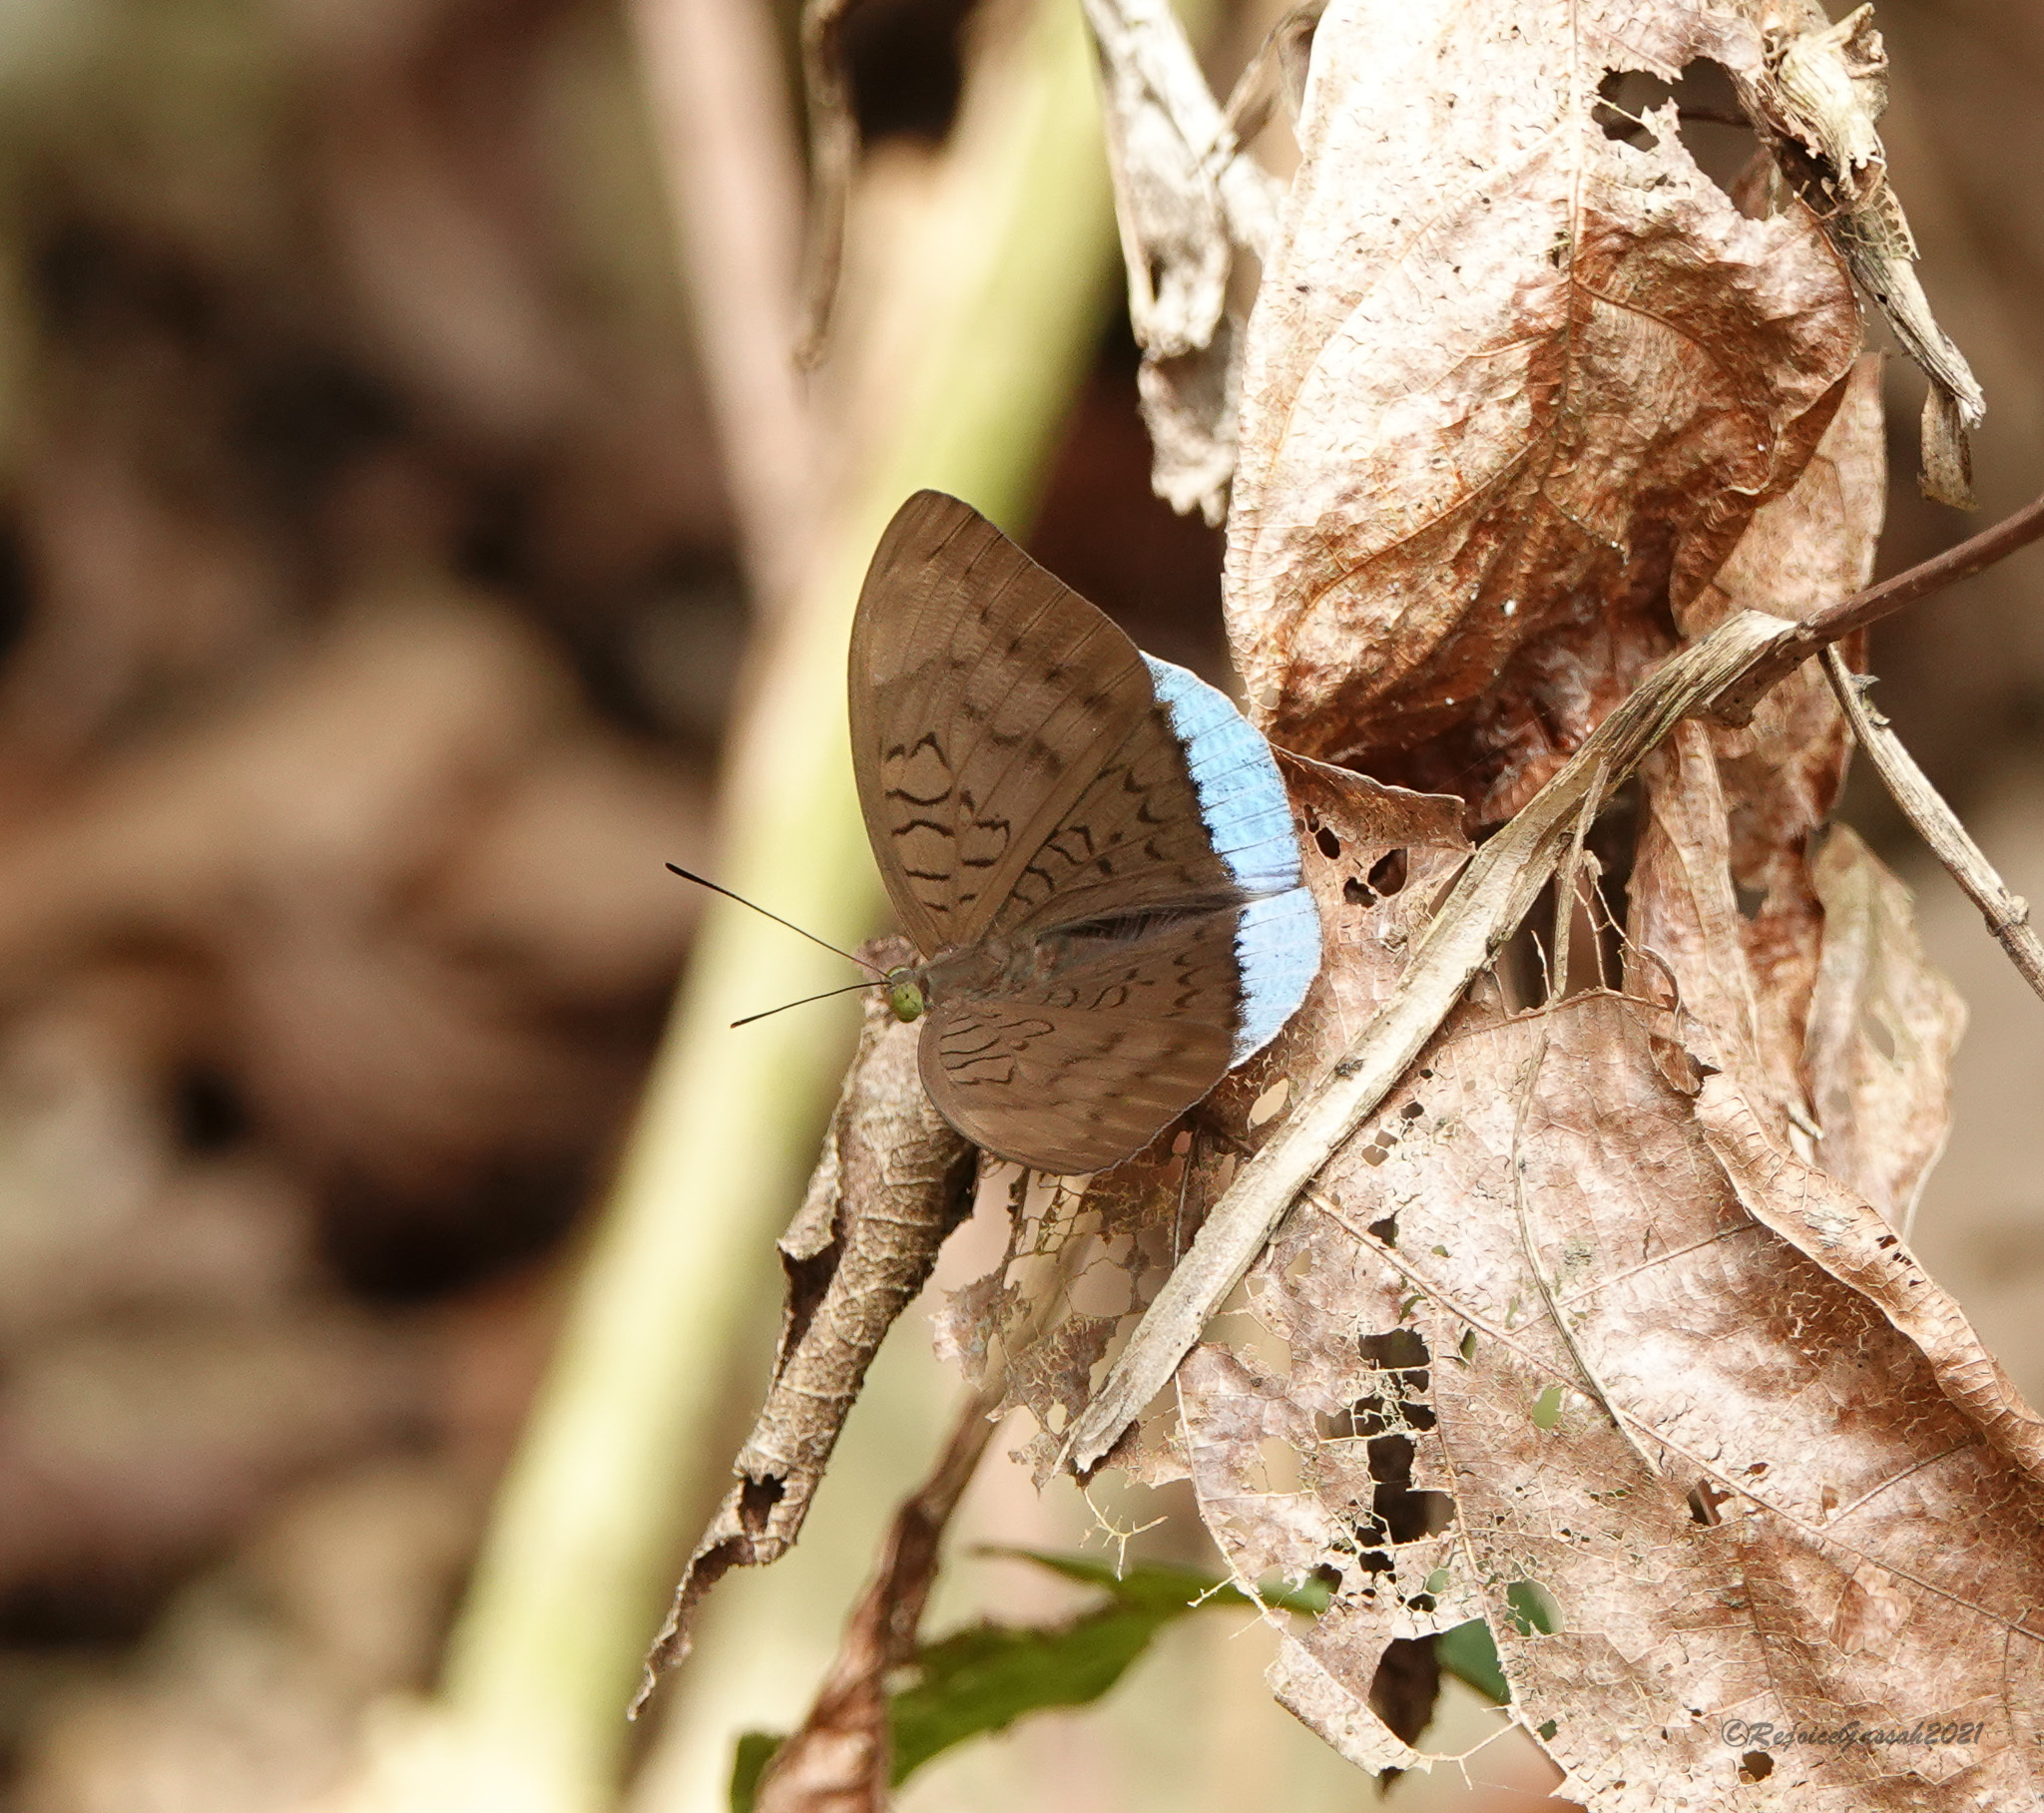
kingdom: Animalia
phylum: Arthropoda
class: Insecta
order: Lepidoptera
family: Nymphalidae
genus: Tanaecia
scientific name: Tanaecia julii
